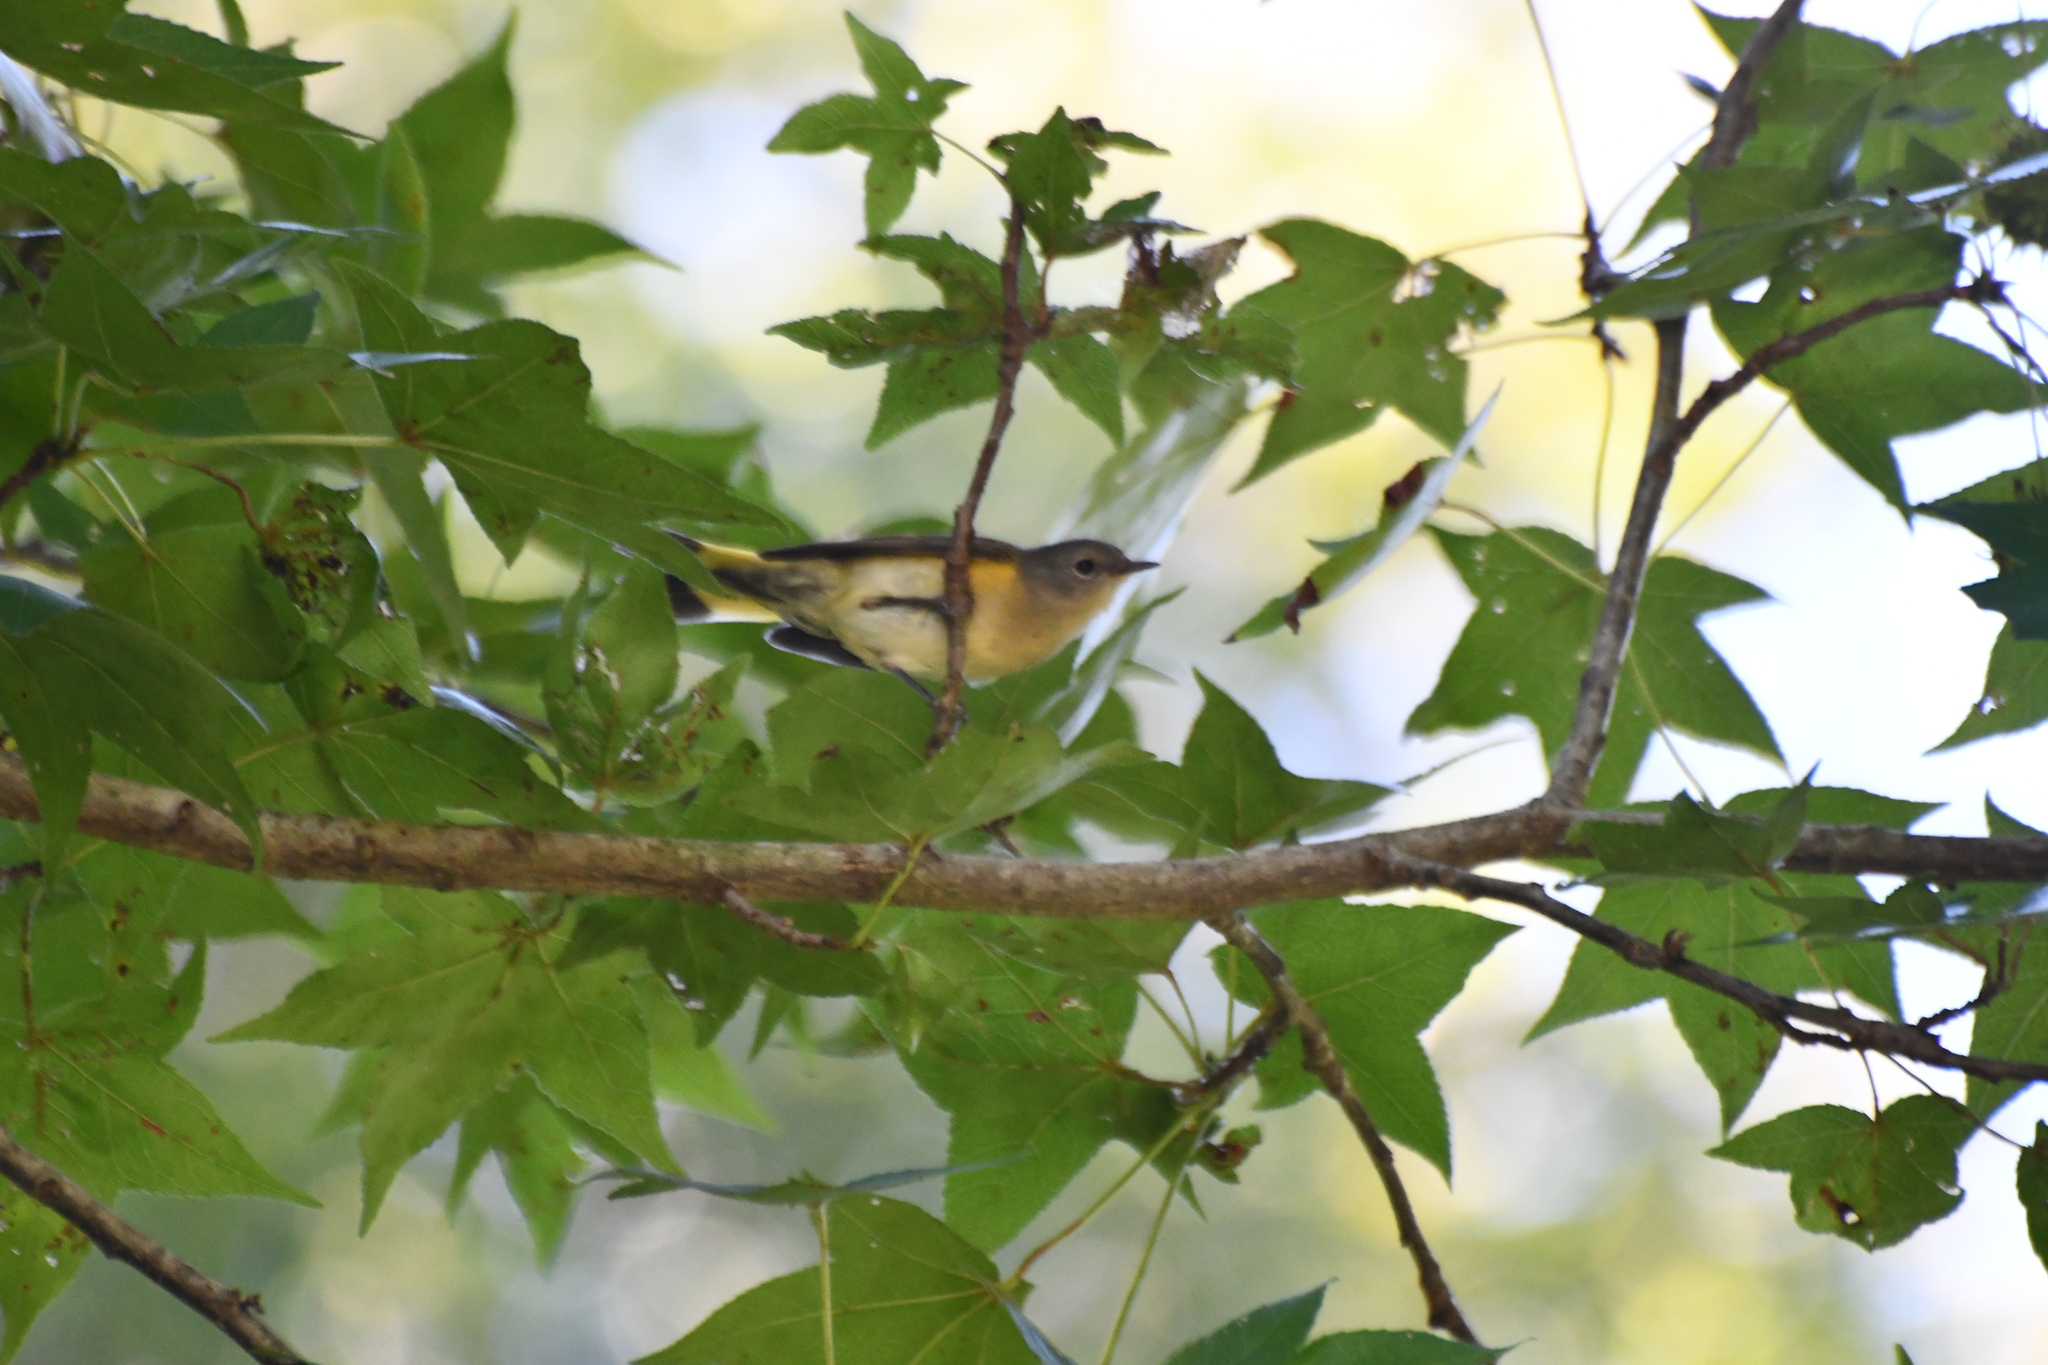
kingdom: Animalia
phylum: Chordata
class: Aves
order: Passeriformes
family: Parulidae
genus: Setophaga
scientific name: Setophaga ruticilla
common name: American redstart
